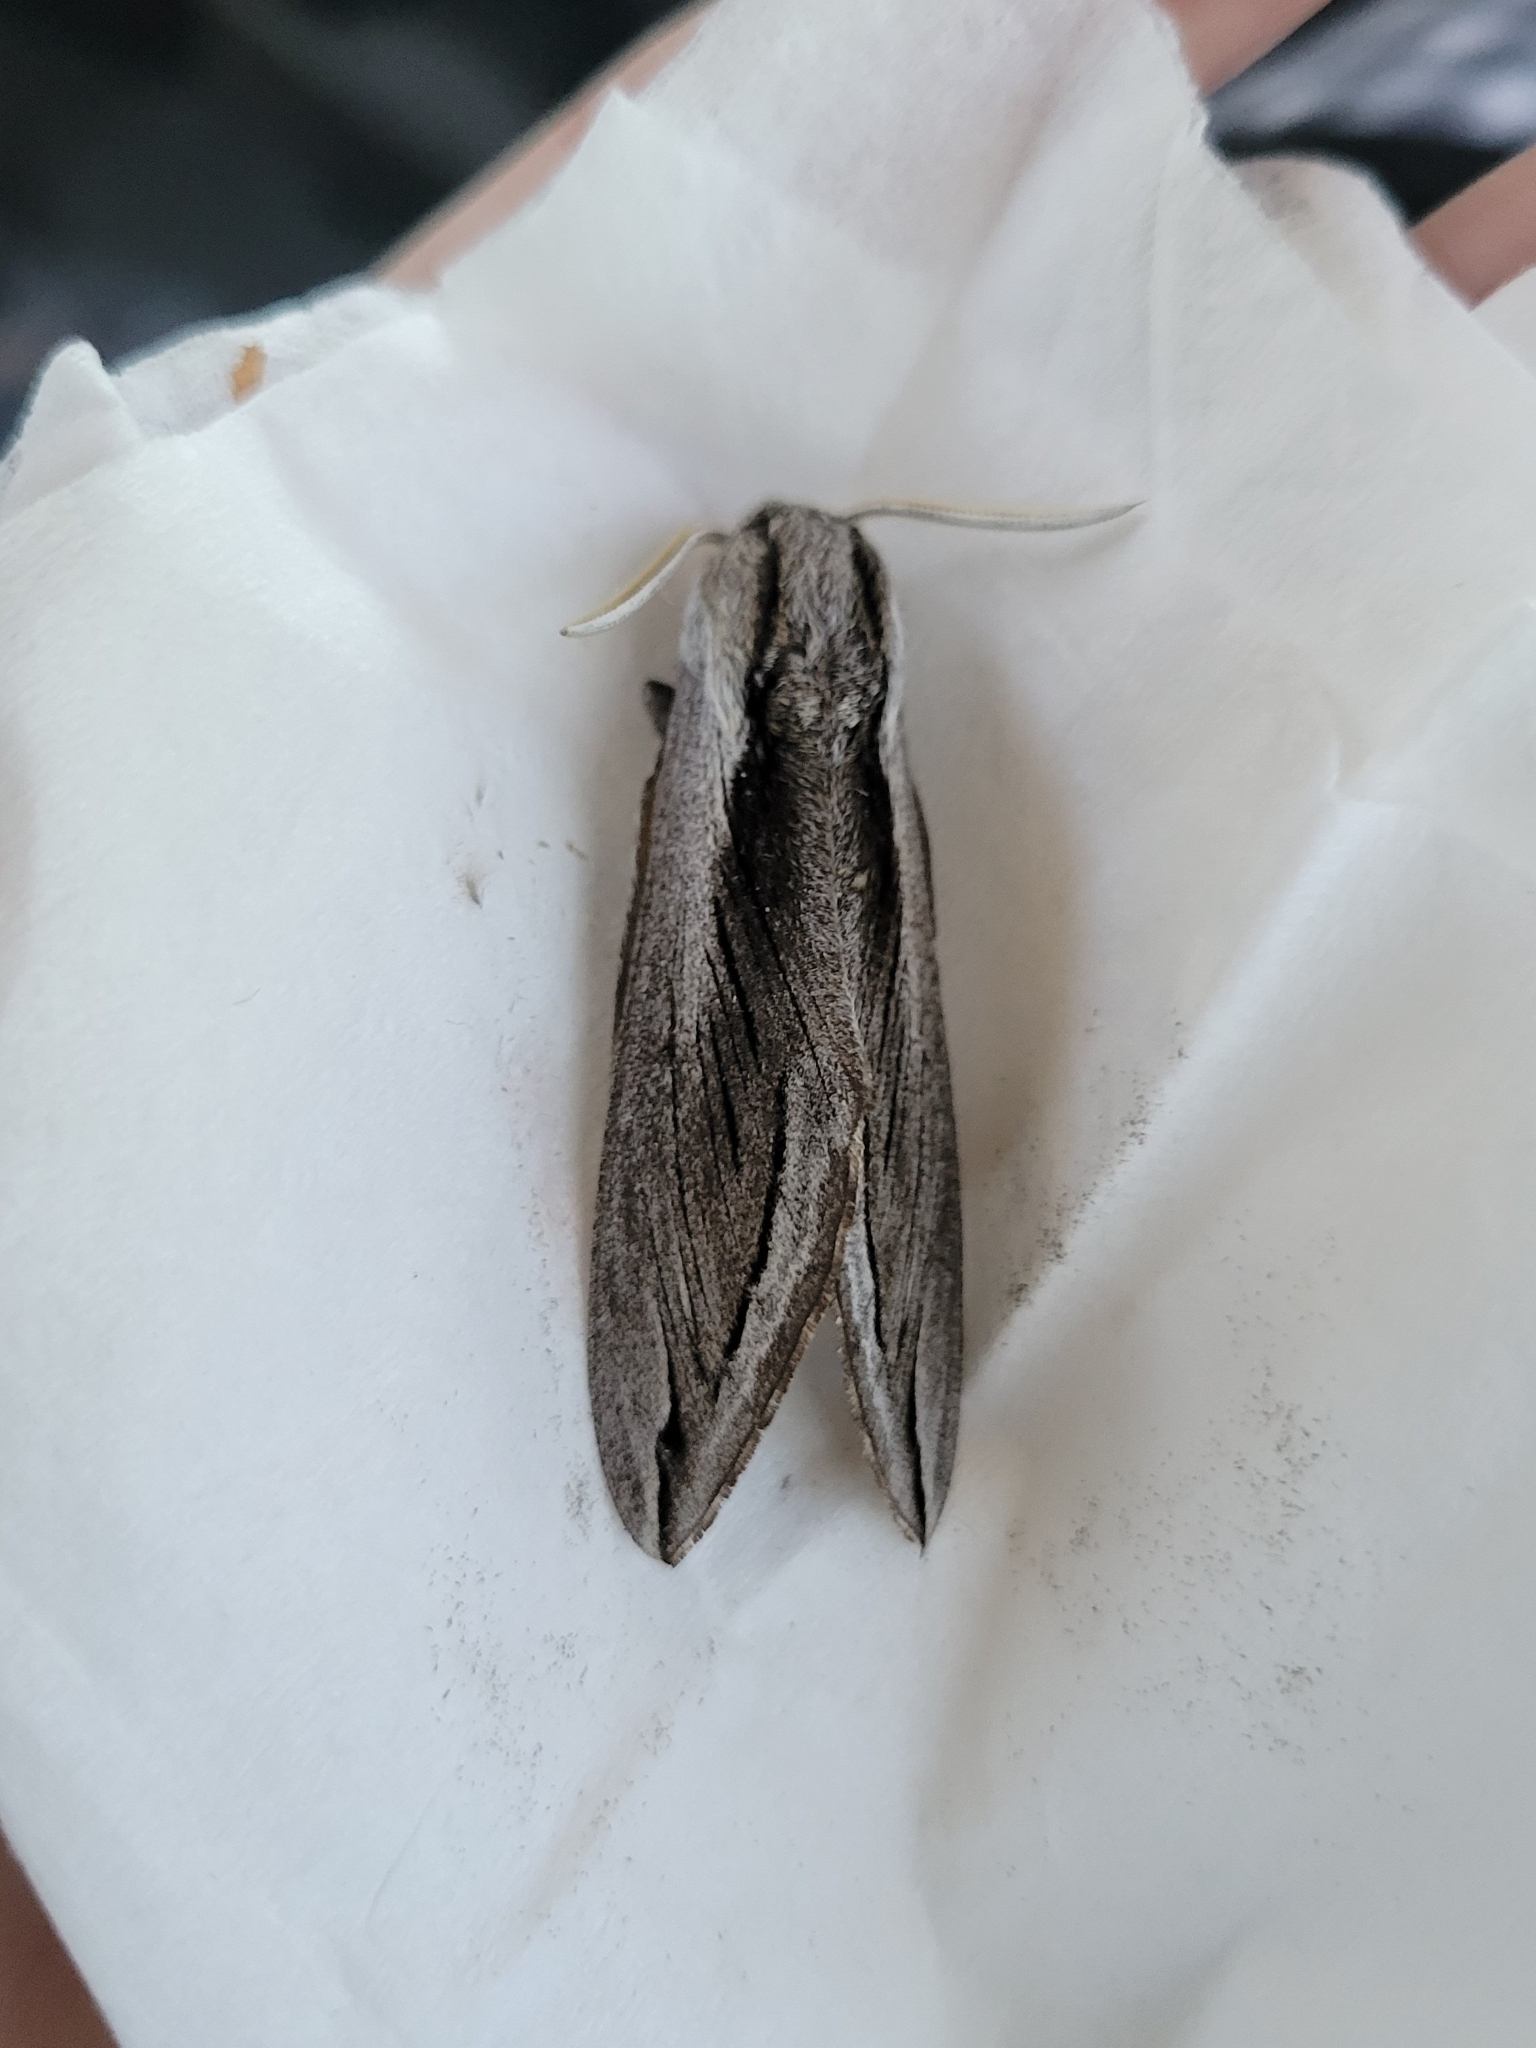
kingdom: Animalia
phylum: Arthropoda
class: Insecta
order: Lepidoptera
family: Sphingidae
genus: Sphinx
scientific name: Sphinx vashti
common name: Snowberry sphinx
